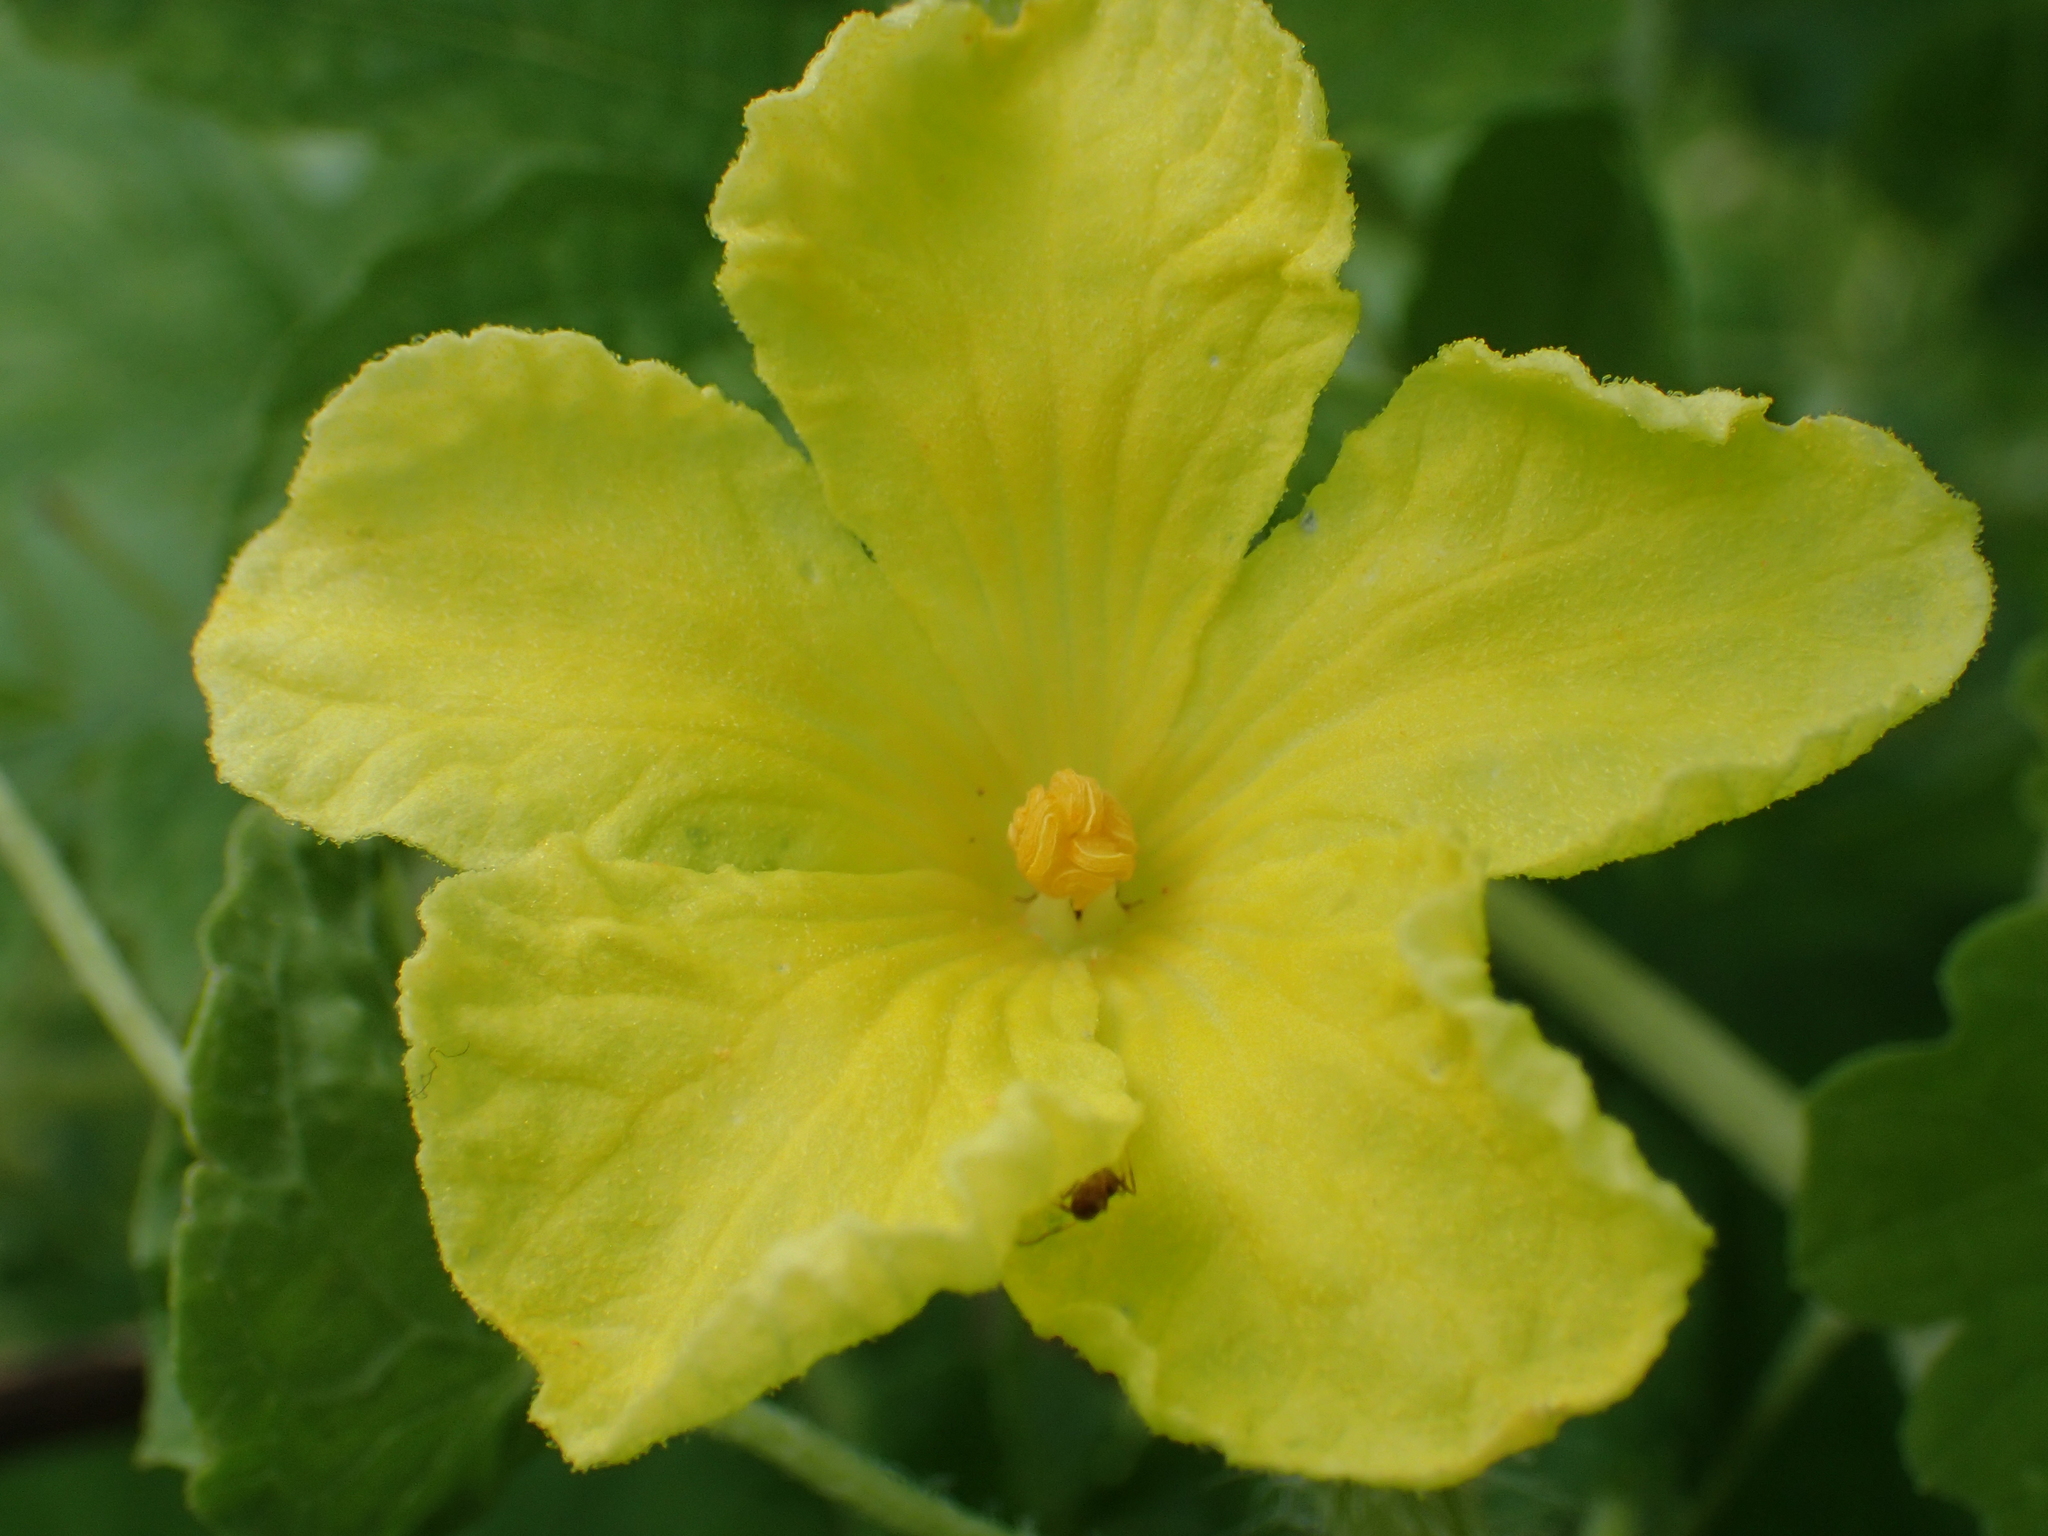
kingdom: Plantae
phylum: Tracheophyta
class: Magnoliopsida
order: Cucurbitales
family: Cucurbitaceae
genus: Momordica
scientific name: Momordica charantia
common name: Balsampear
